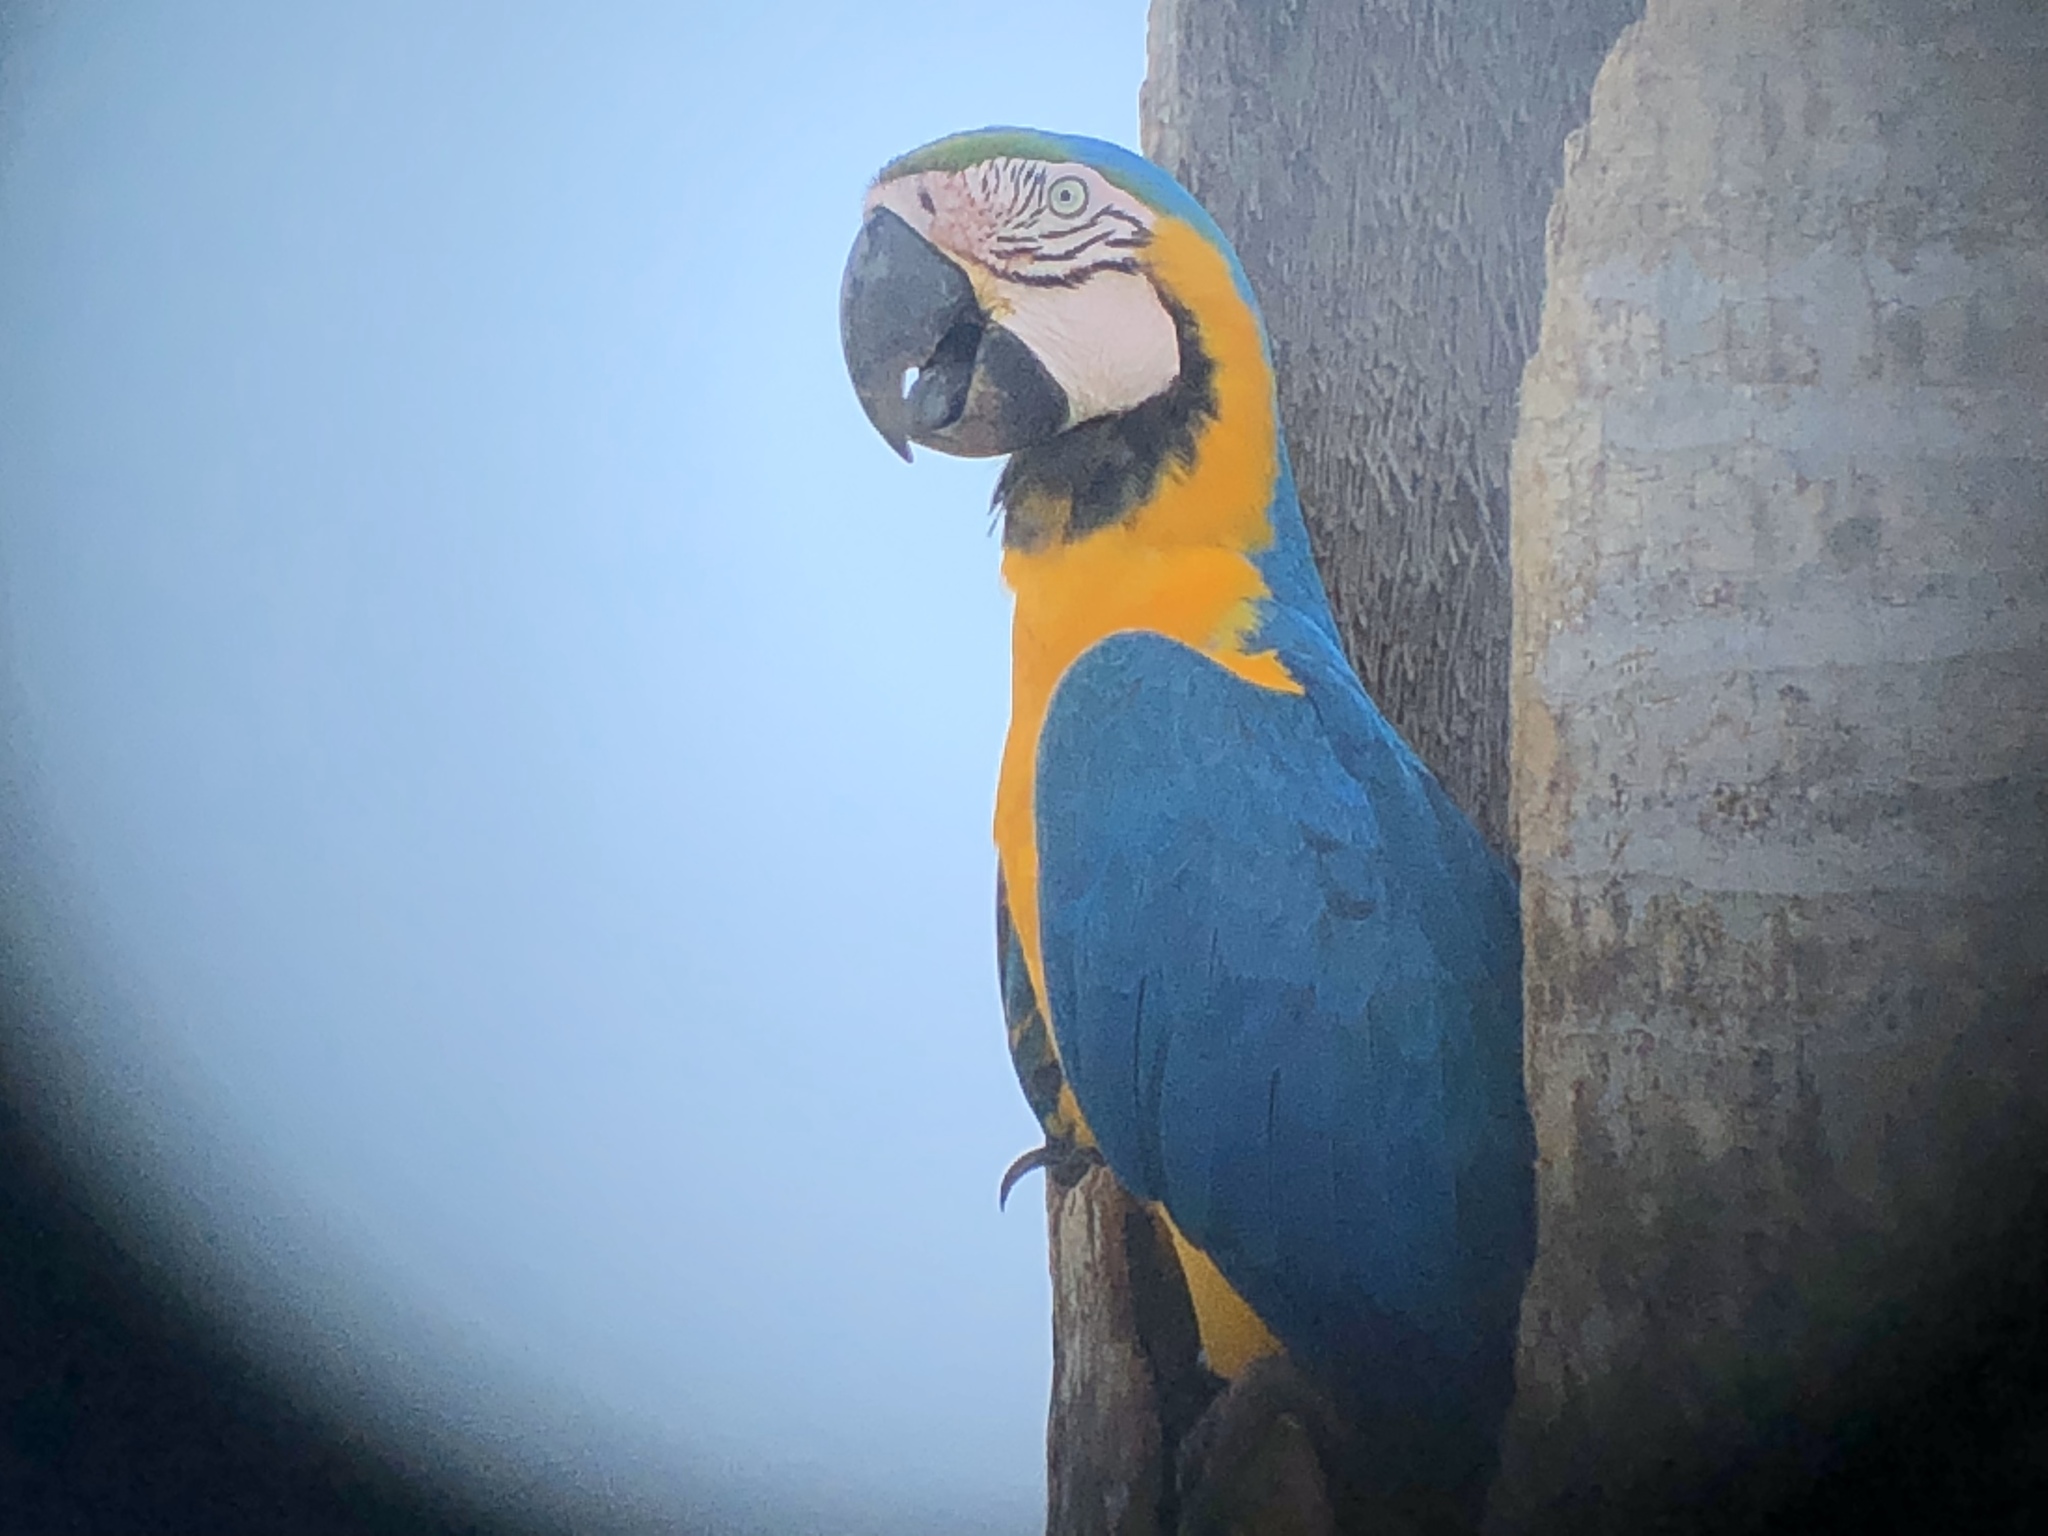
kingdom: Animalia
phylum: Chordata
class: Aves
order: Psittaciformes
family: Psittacidae
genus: Ara
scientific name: Ara ararauna
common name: Blue-and-yellow macaw
